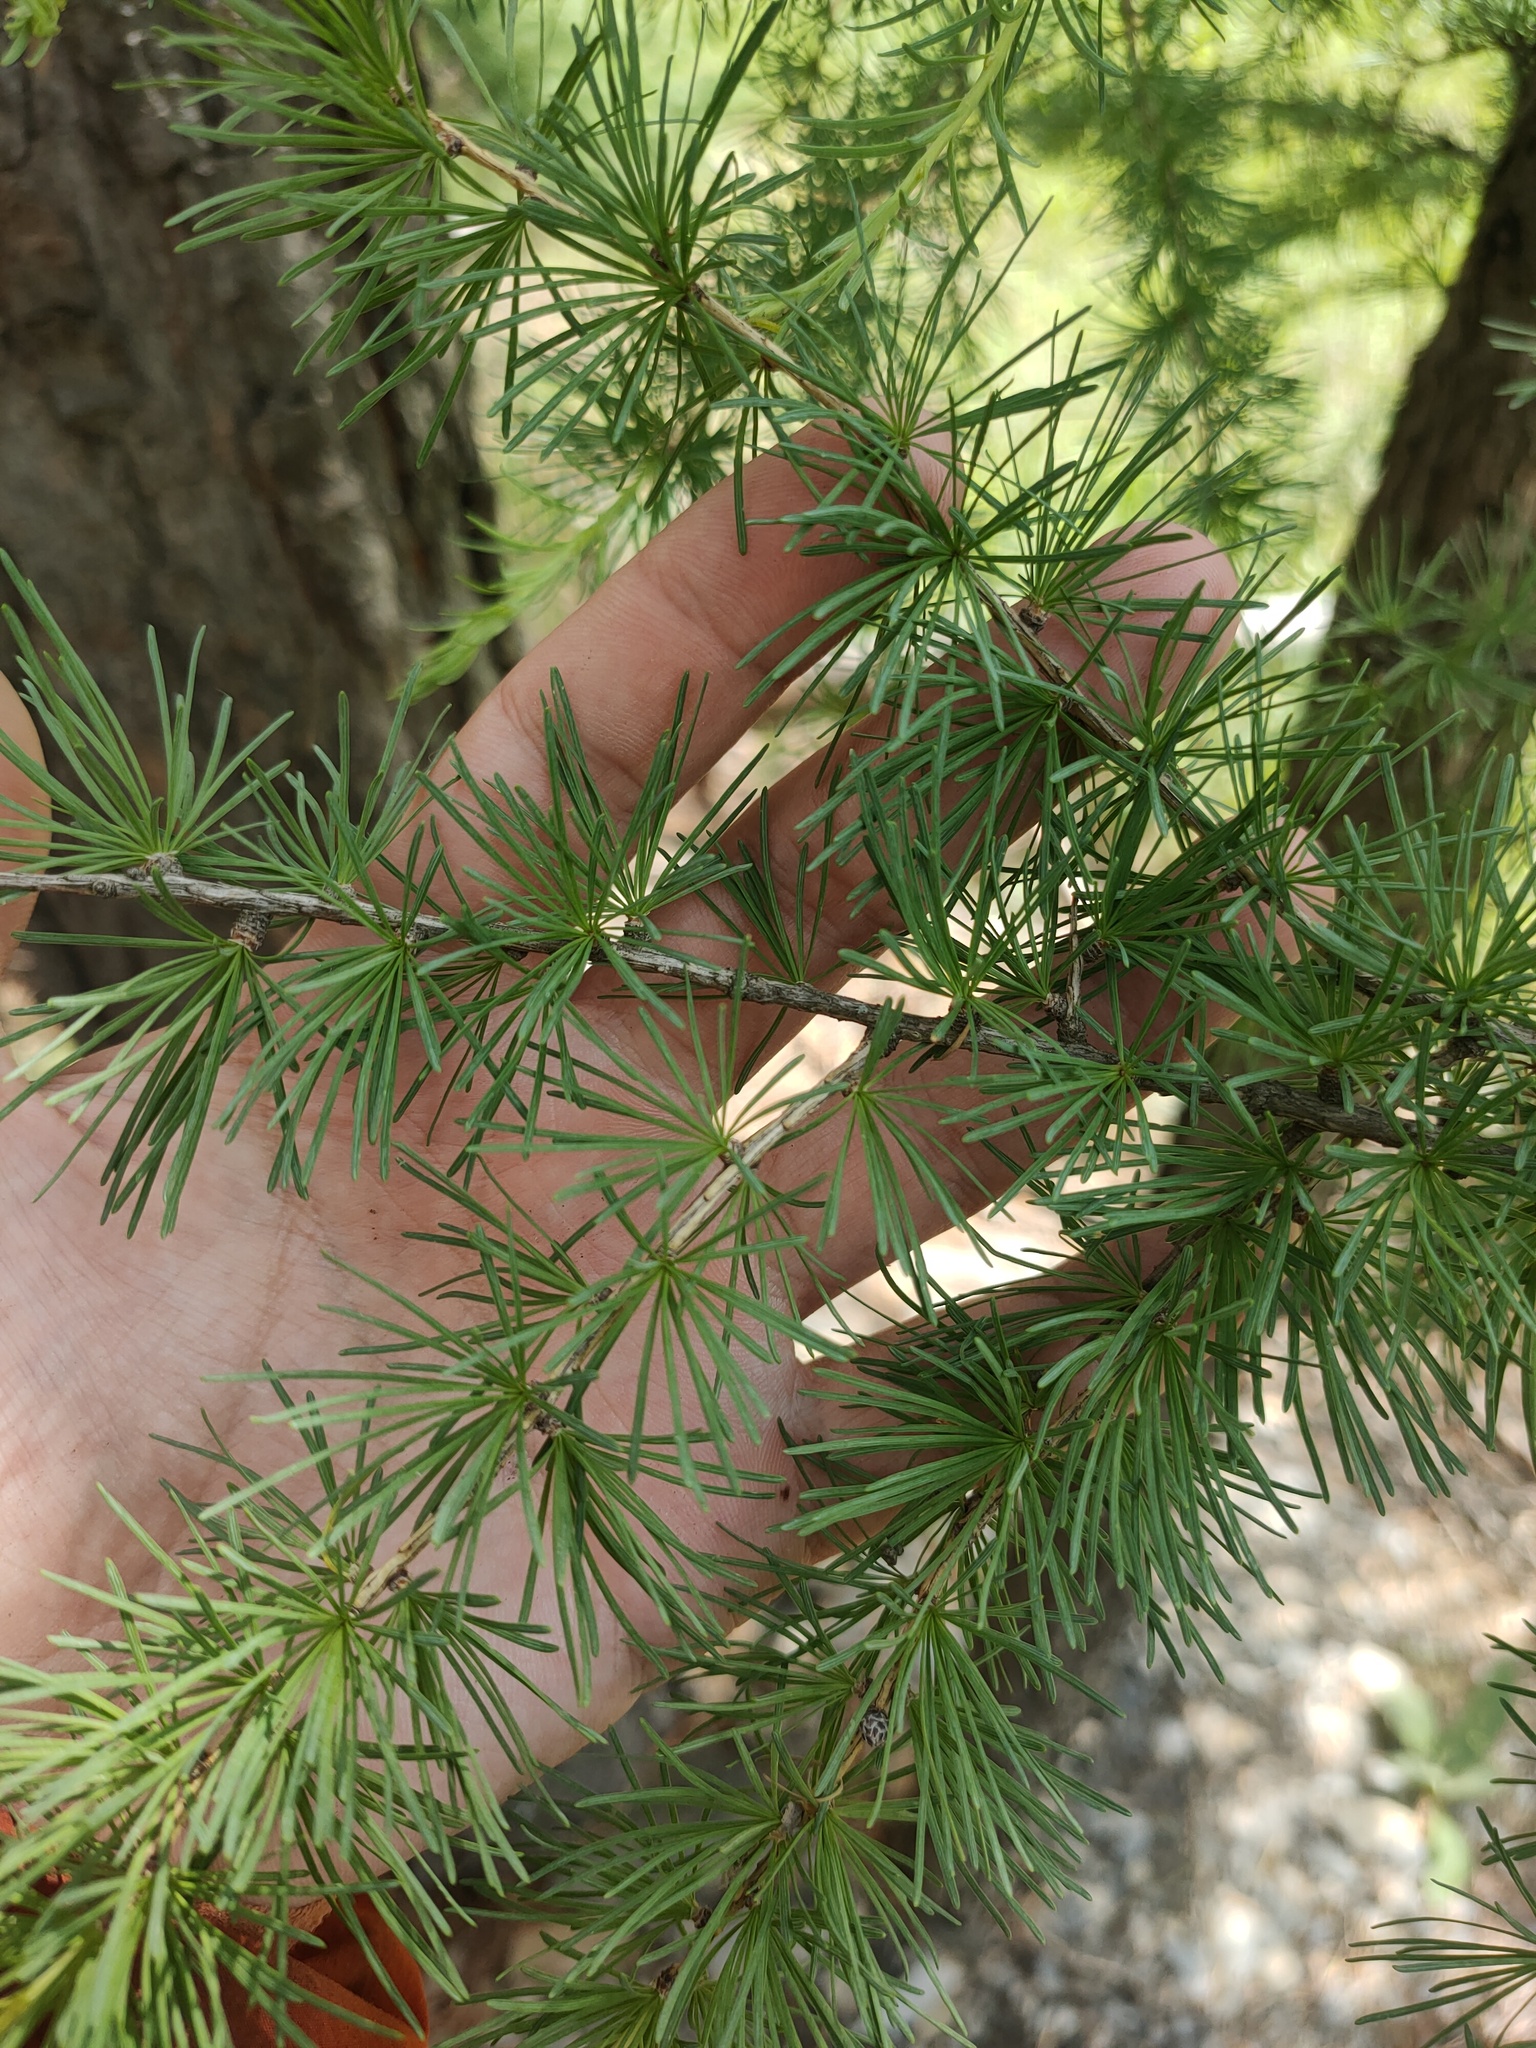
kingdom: Plantae
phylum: Tracheophyta
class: Pinopsida
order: Pinales
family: Pinaceae
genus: Larix
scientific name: Larix
